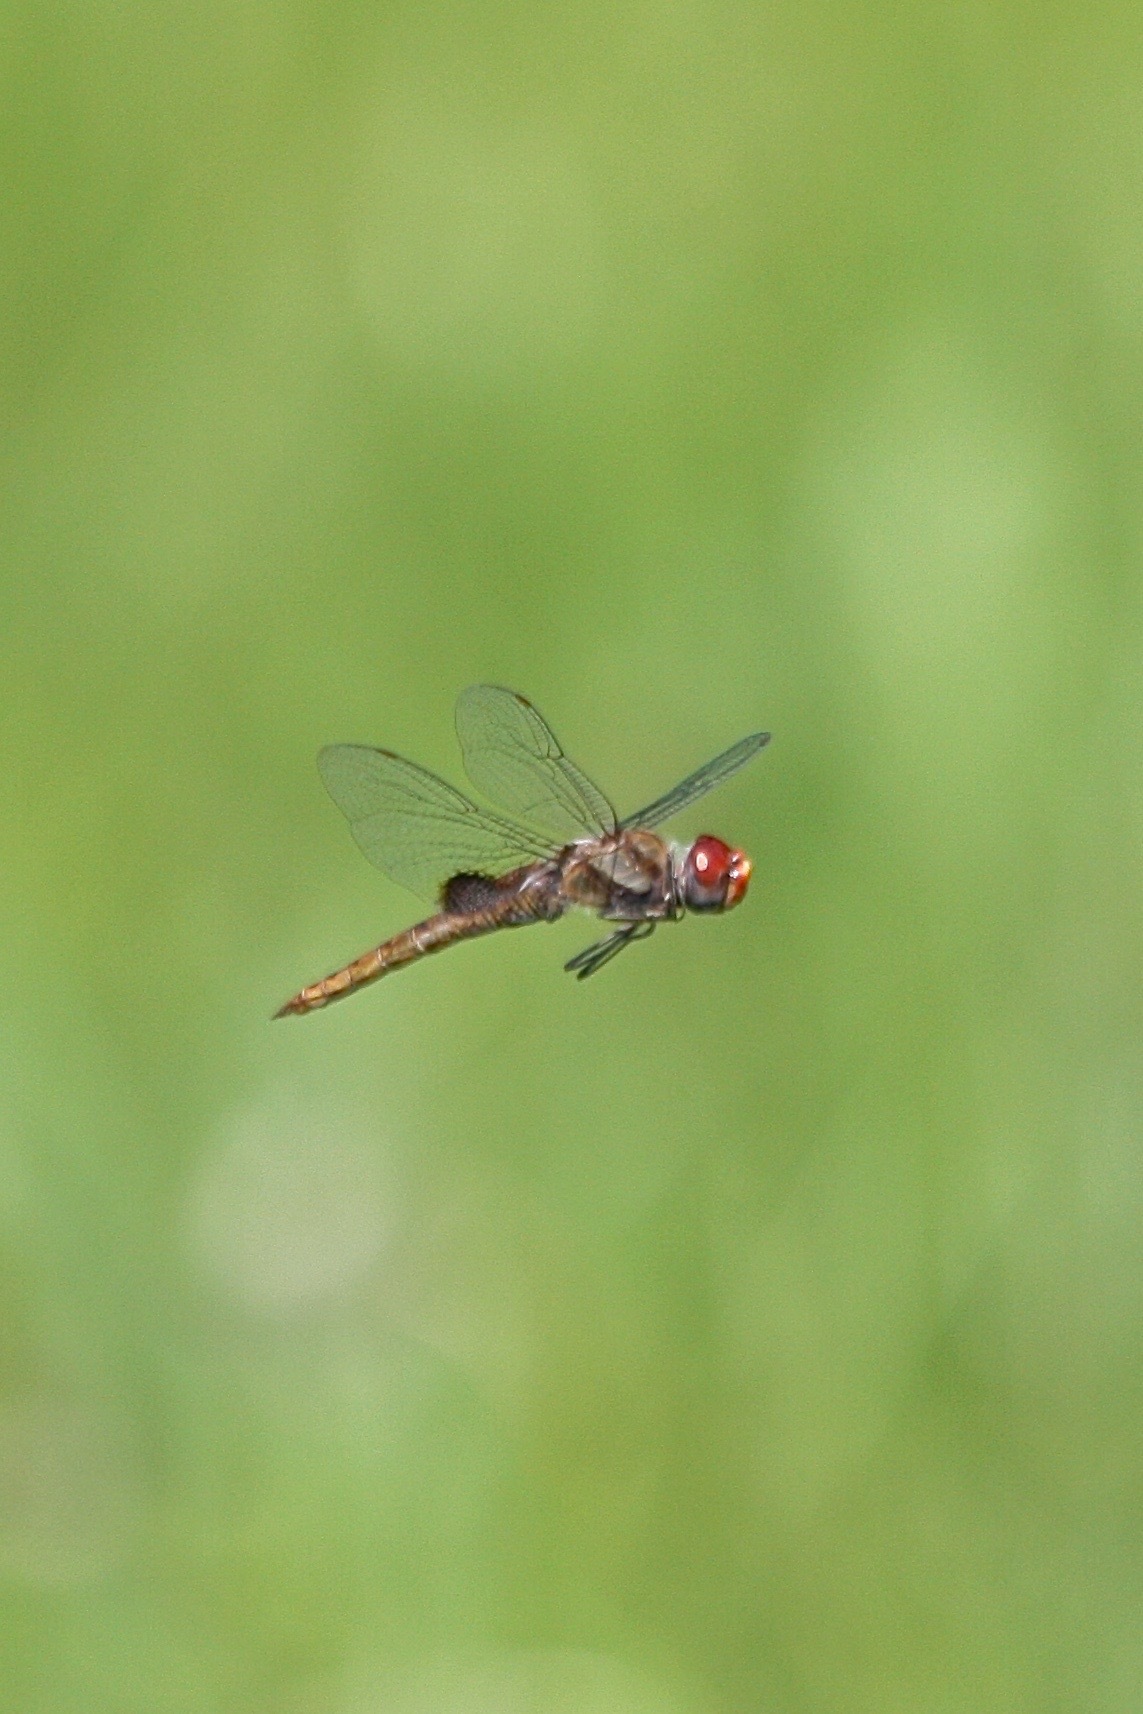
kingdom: Animalia
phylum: Arthropoda
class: Insecta
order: Odonata
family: Libellulidae
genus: Pantala
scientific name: Pantala hymenaea
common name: Spot-winged glider
